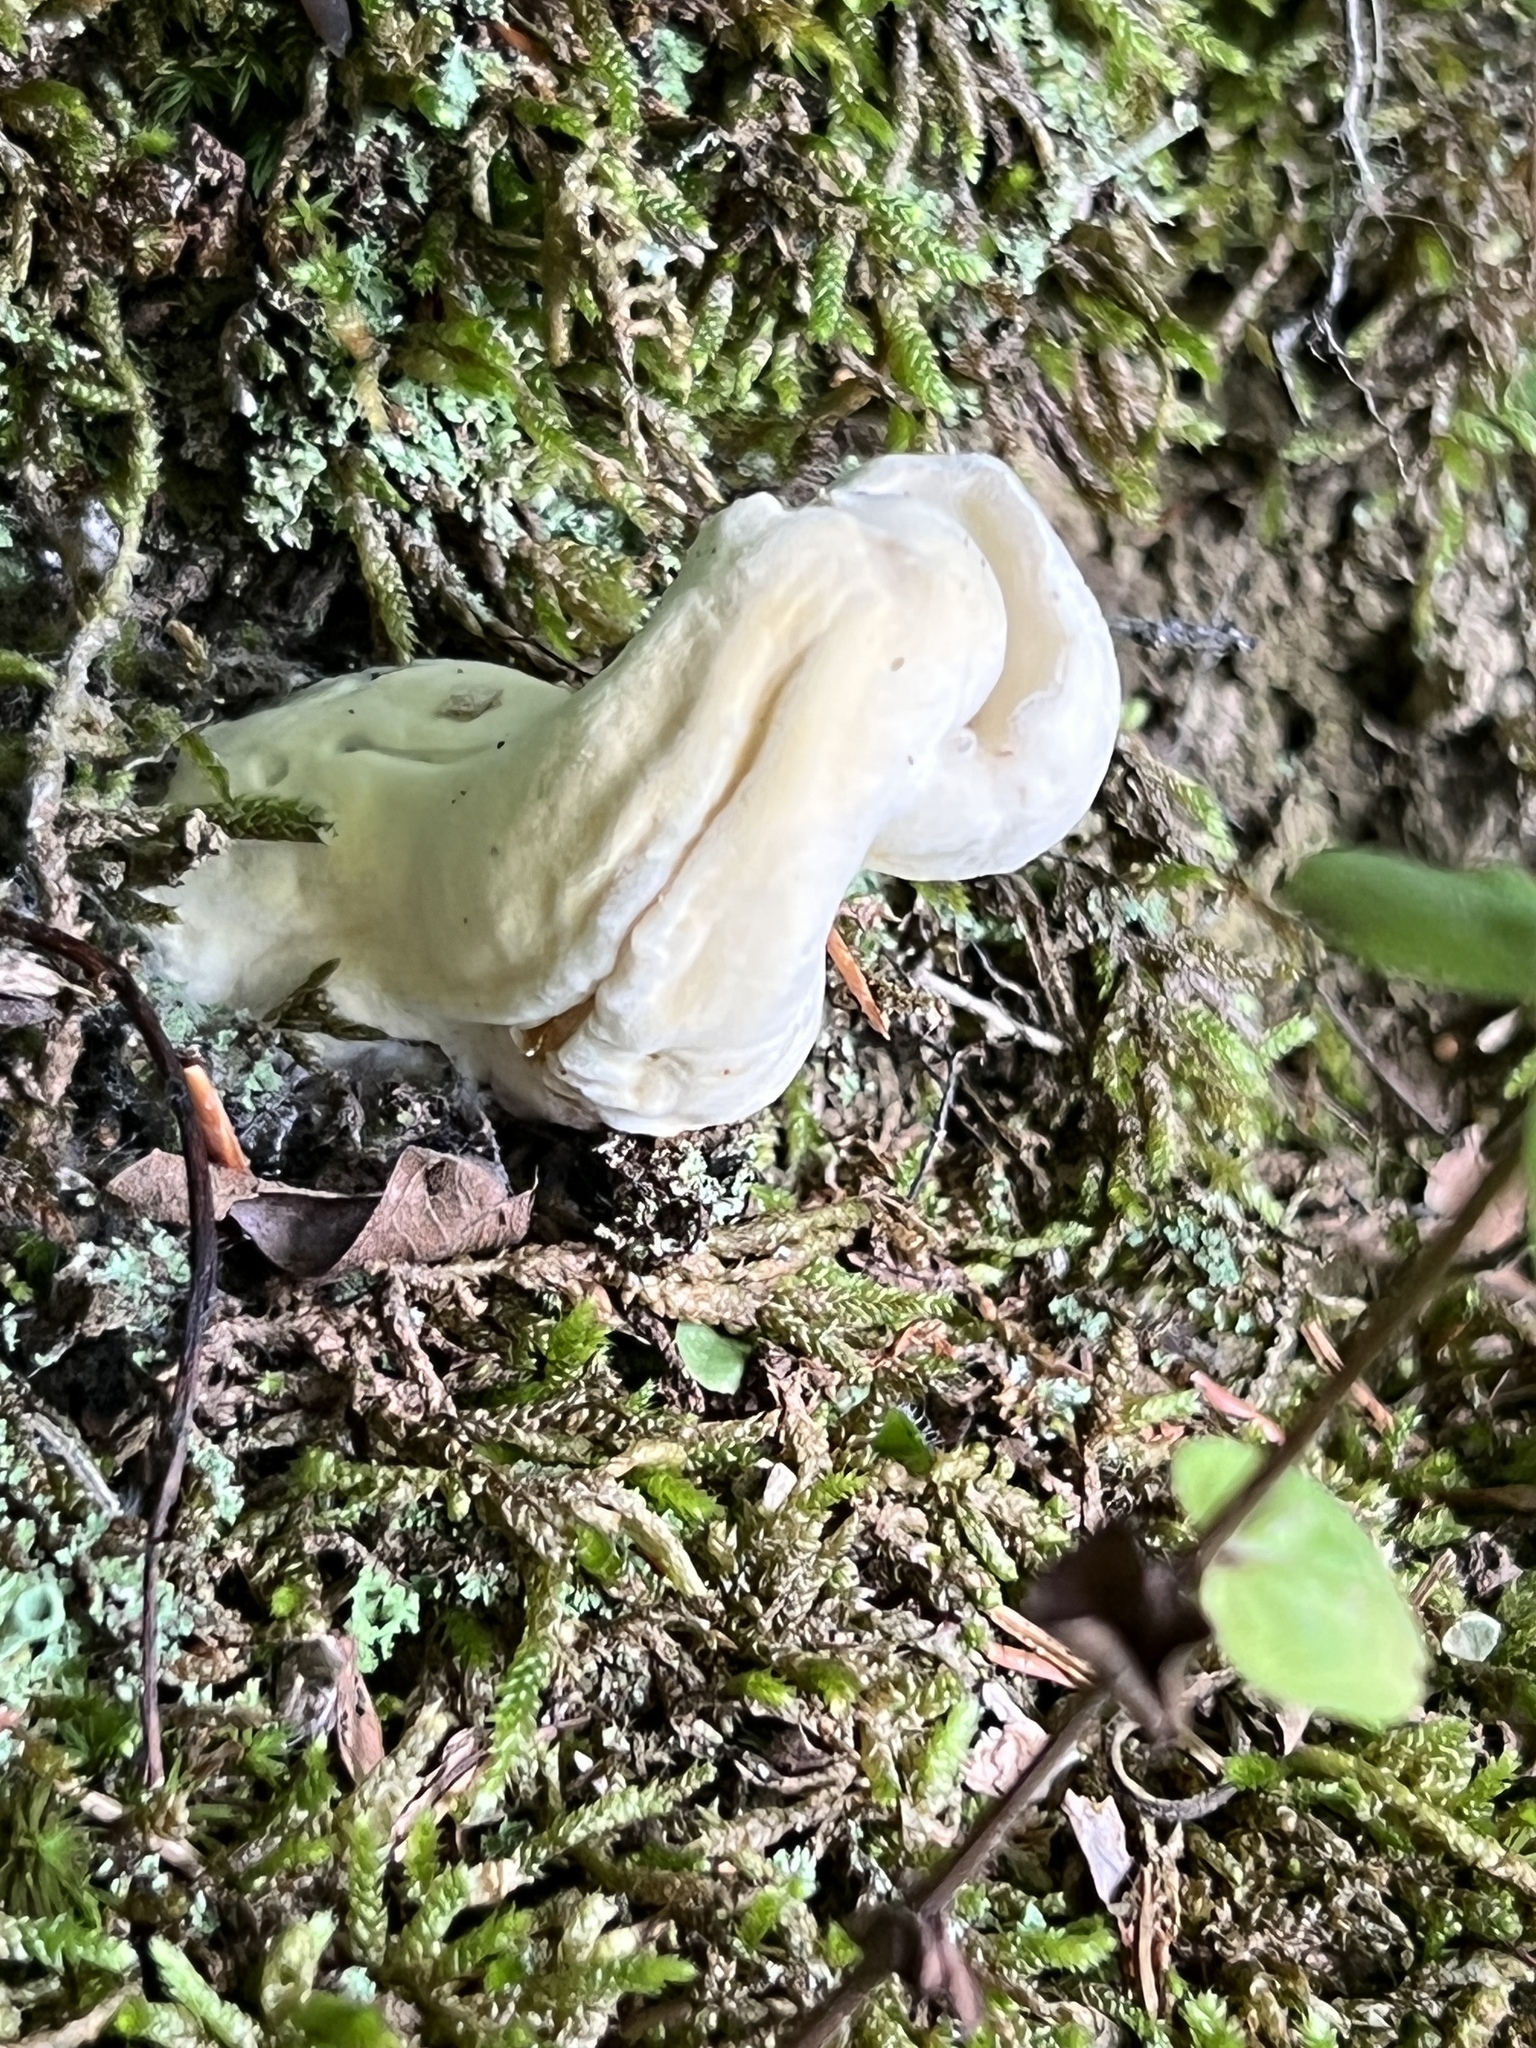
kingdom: Fungi
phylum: Ascomycota
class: Sordariomycetes
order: Hypocreales
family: Hypocreaceae
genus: Hypomyces
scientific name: Hypomyces sichuanensis
